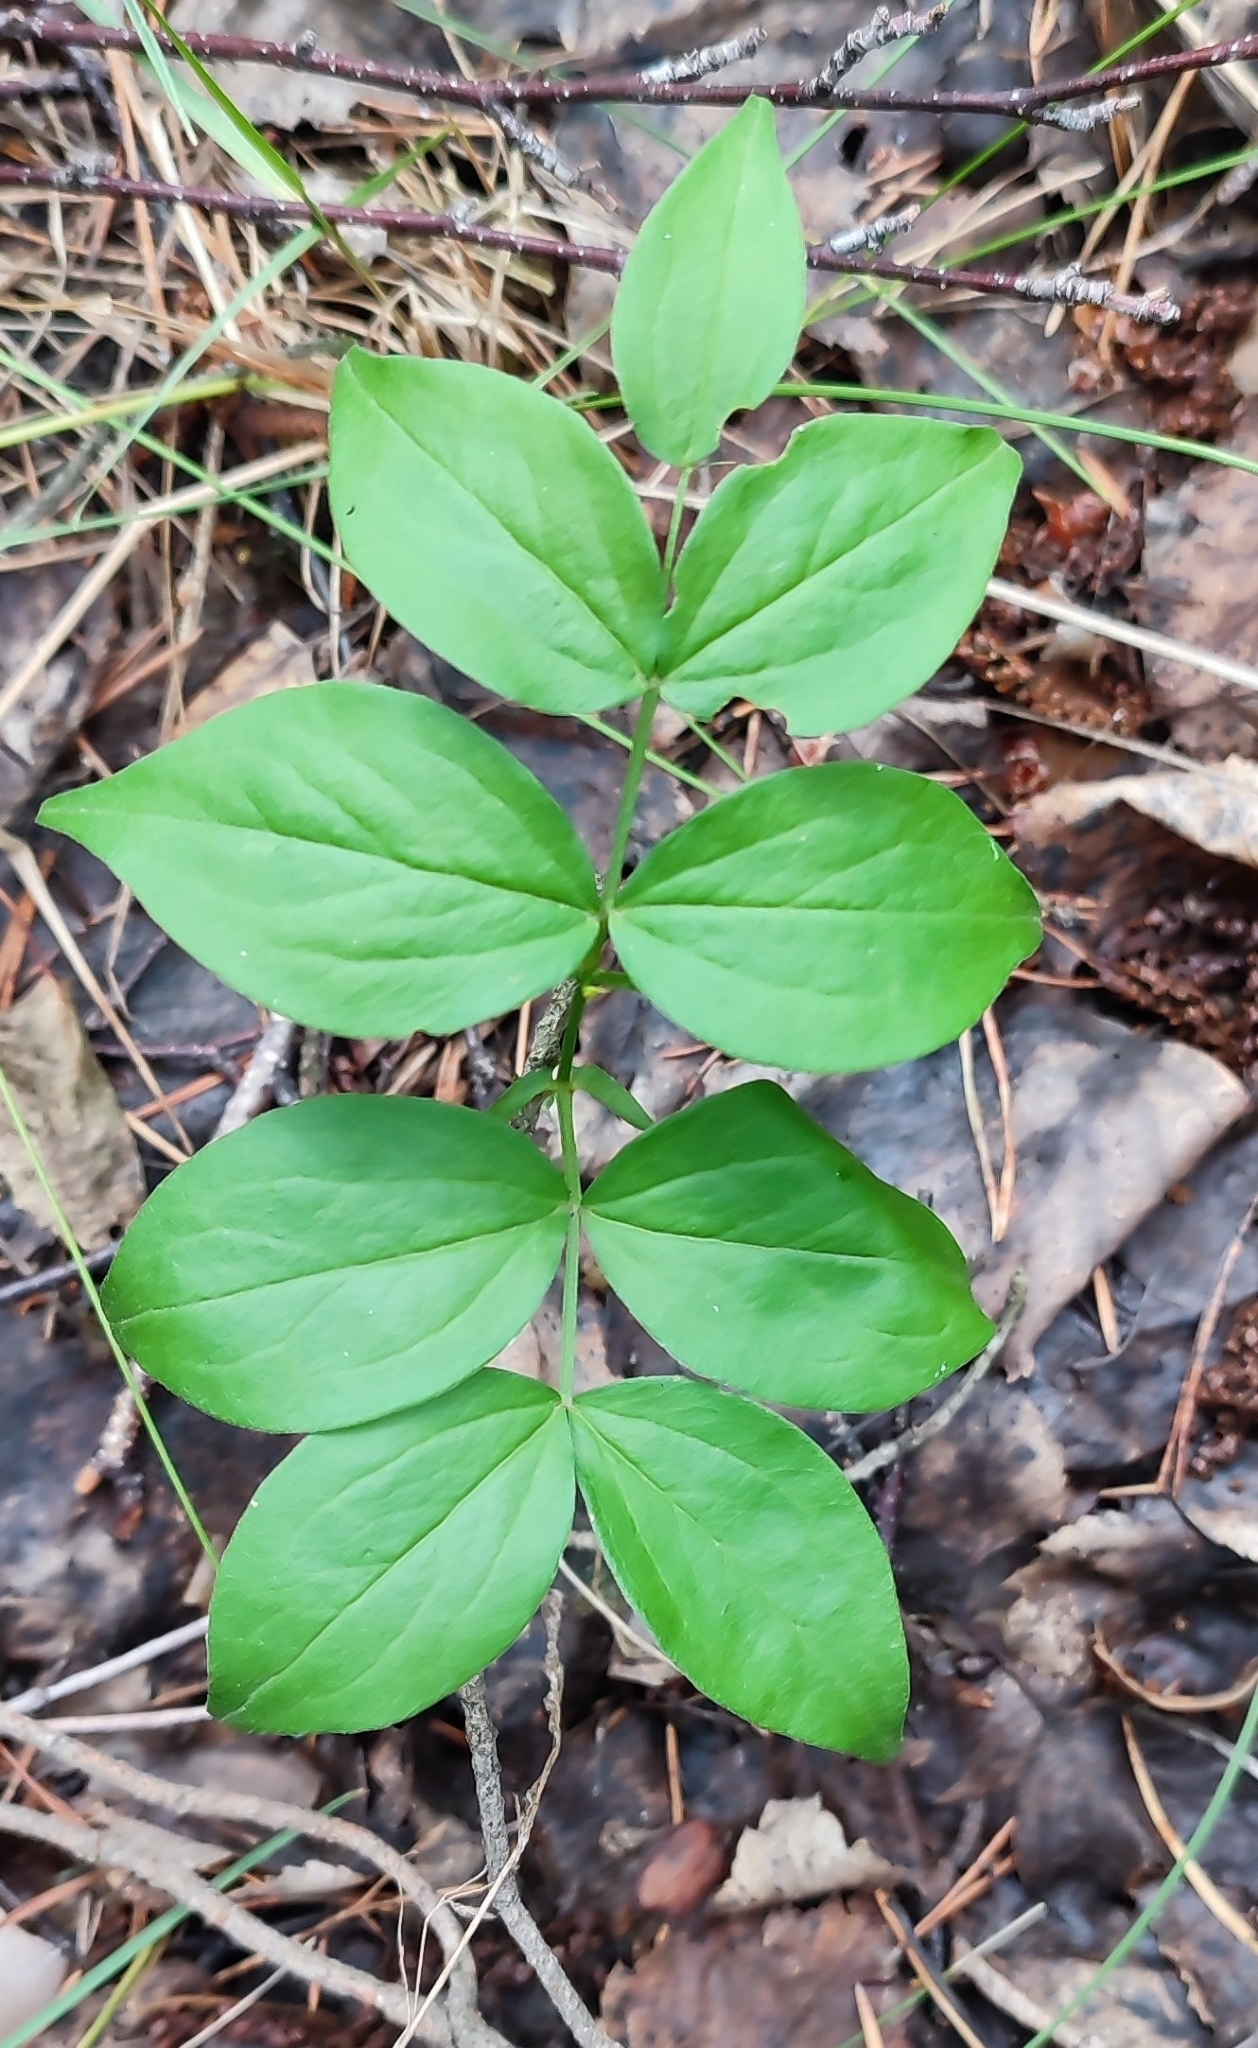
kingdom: Plantae
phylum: Tracheophyta
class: Magnoliopsida
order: Fabales
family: Fabaceae
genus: Lathyrus
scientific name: Lathyrus vernus
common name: Spring pea
